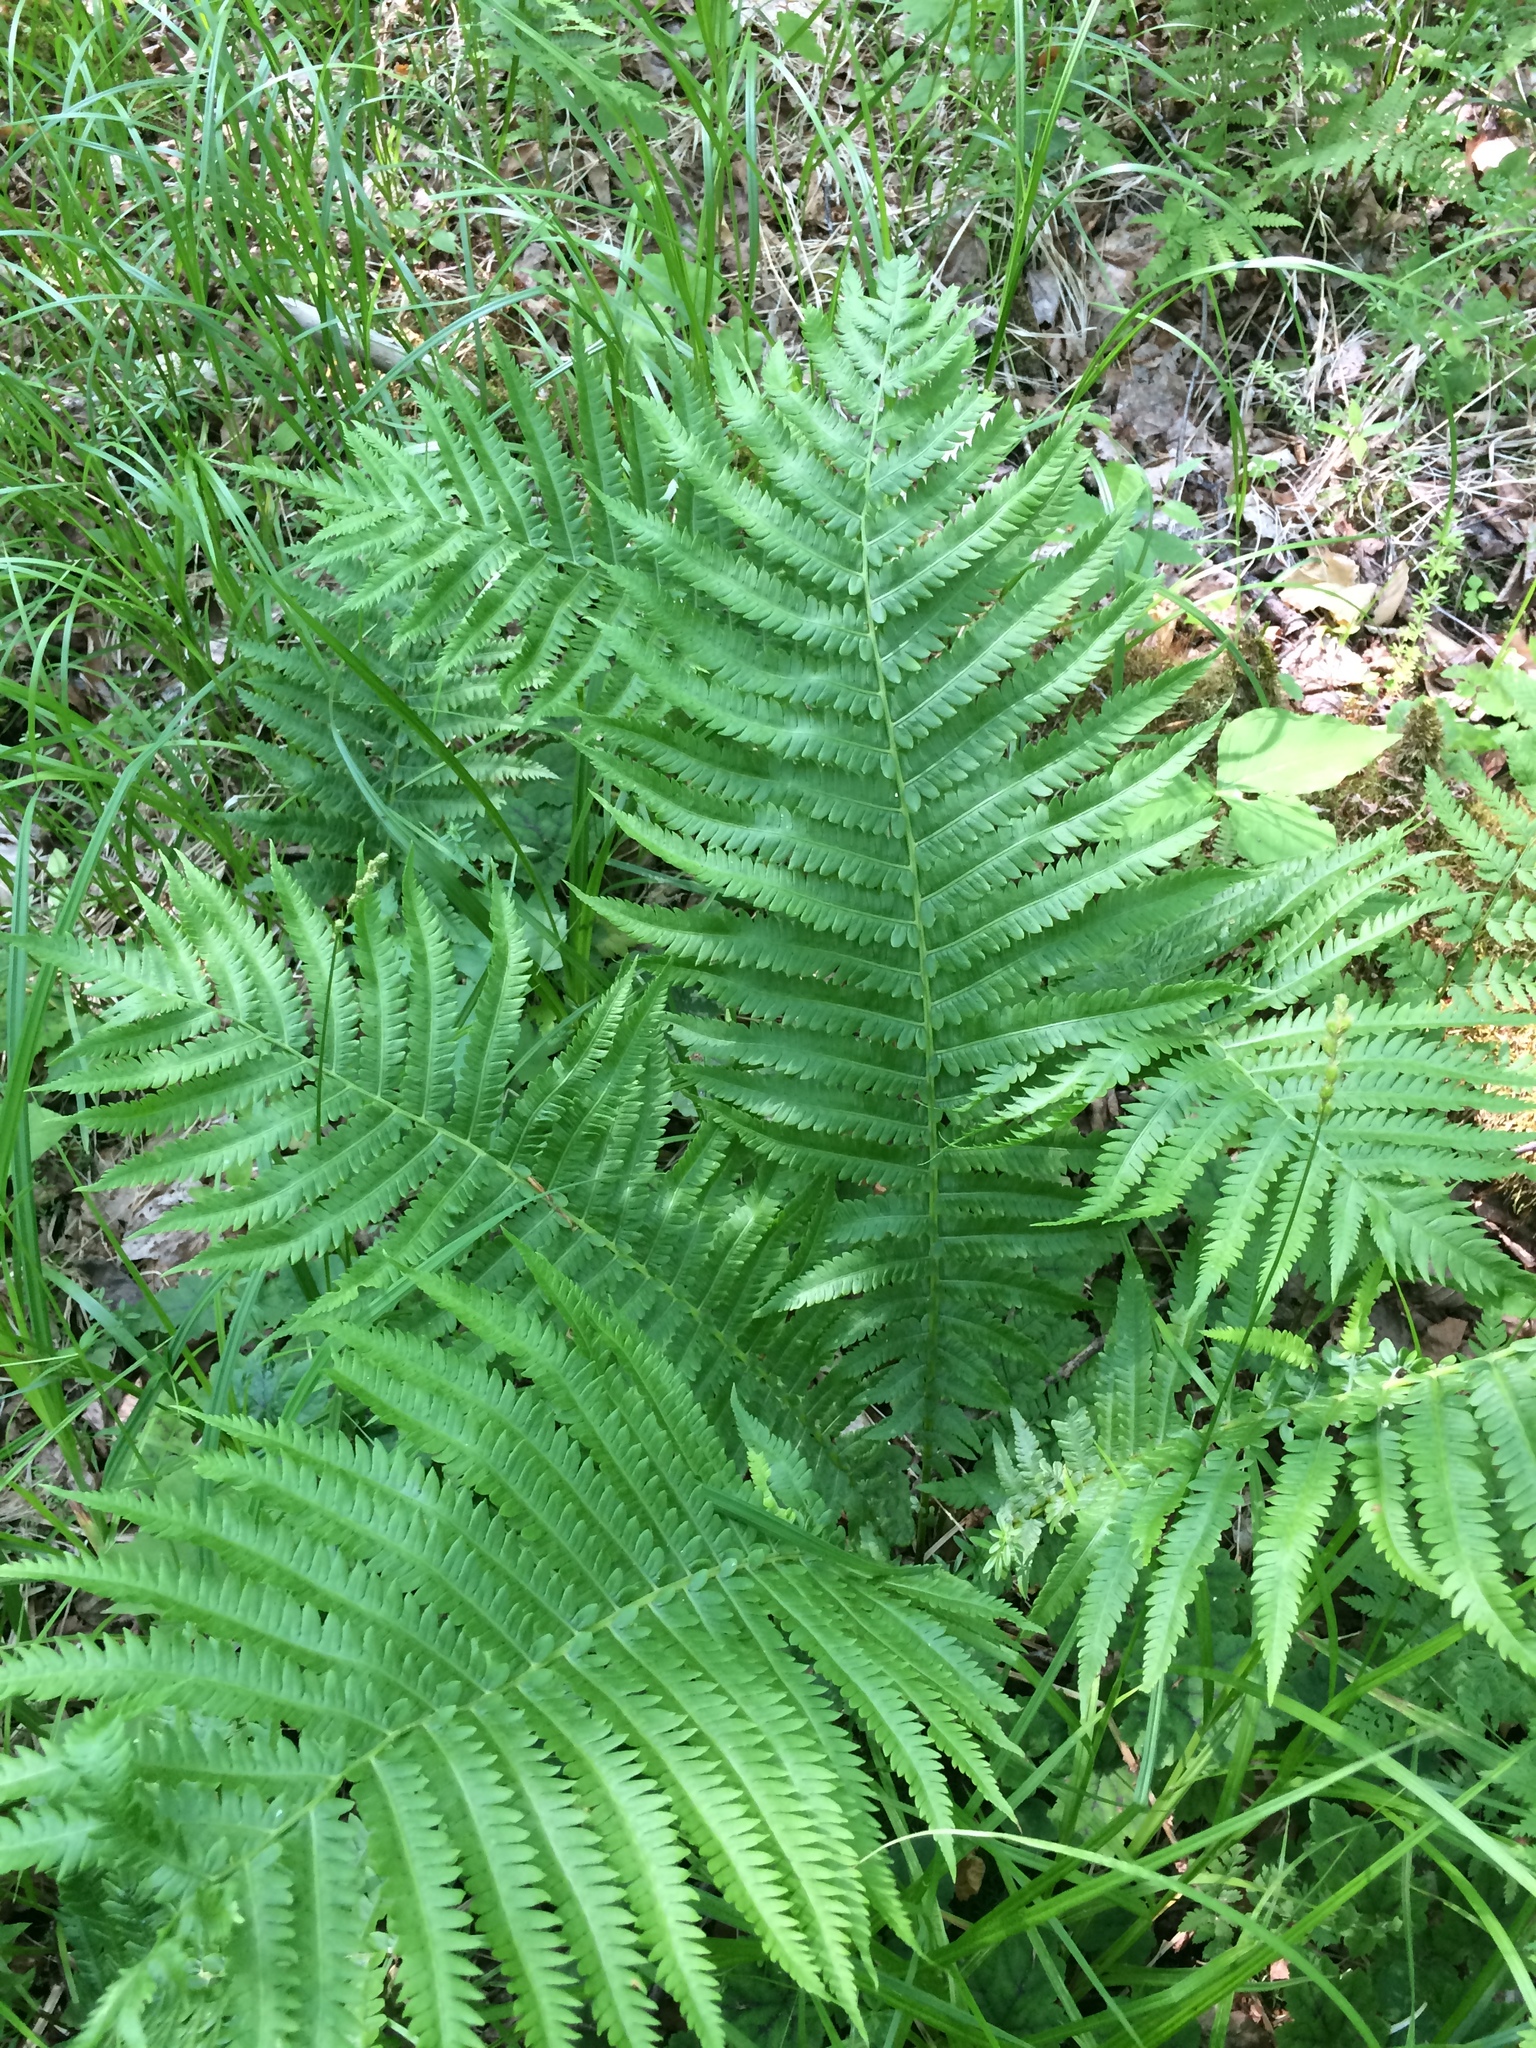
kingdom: Plantae
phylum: Tracheophyta
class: Polypodiopsida
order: Polypodiales
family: Onocleaceae
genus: Matteuccia
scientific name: Matteuccia struthiopteris
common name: Ostrich fern
